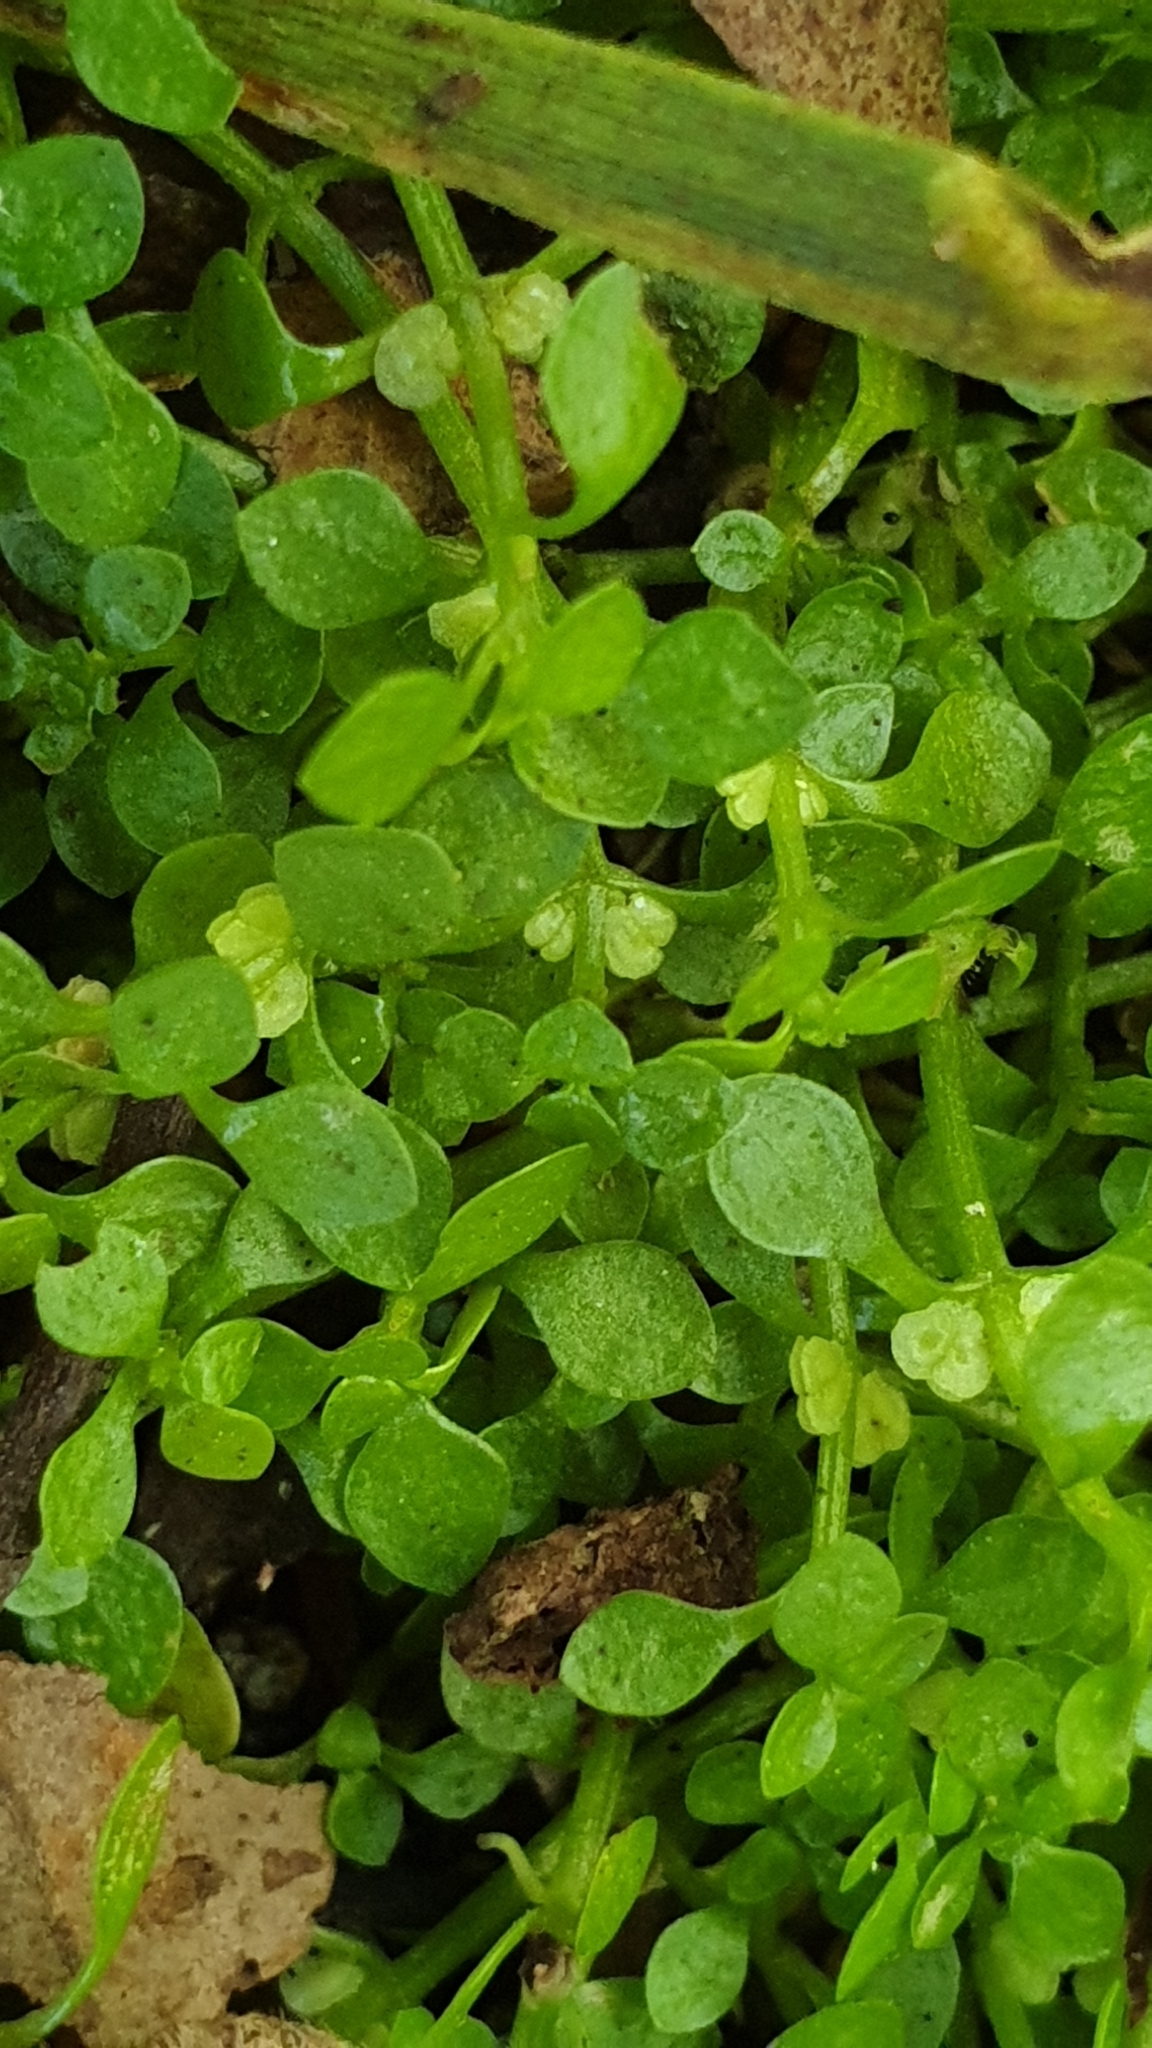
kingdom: Plantae
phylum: Tracheophyta
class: Magnoliopsida
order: Lamiales
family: Plantaginaceae
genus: Callitriche
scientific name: Callitriche muelleri
